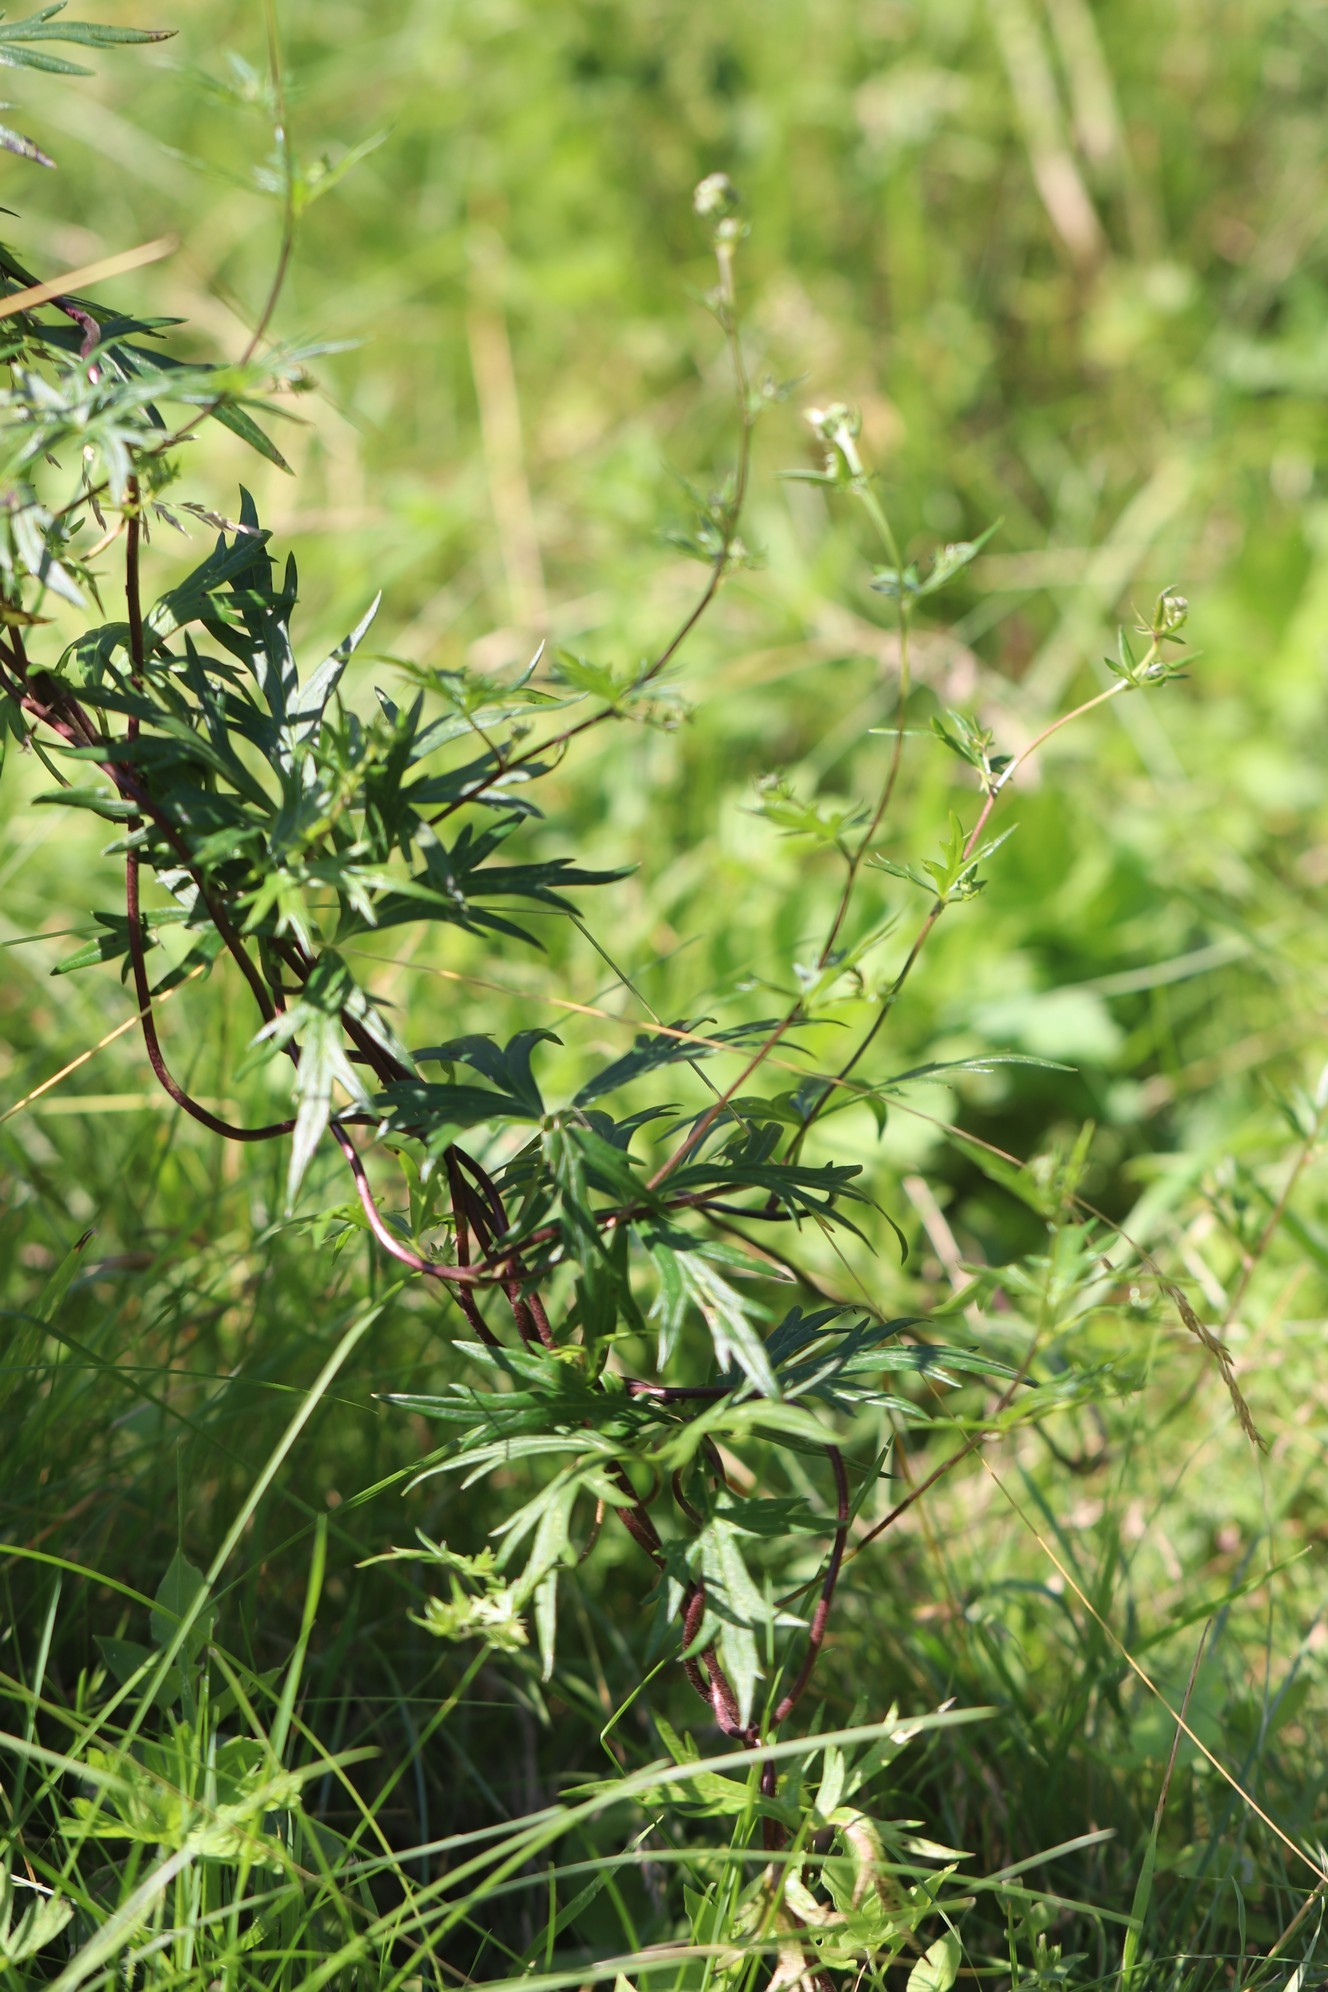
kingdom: Plantae
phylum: Tracheophyta
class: Magnoliopsida
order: Ranunculales
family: Ranunculaceae
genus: Aconitum
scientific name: Aconitum volubile
